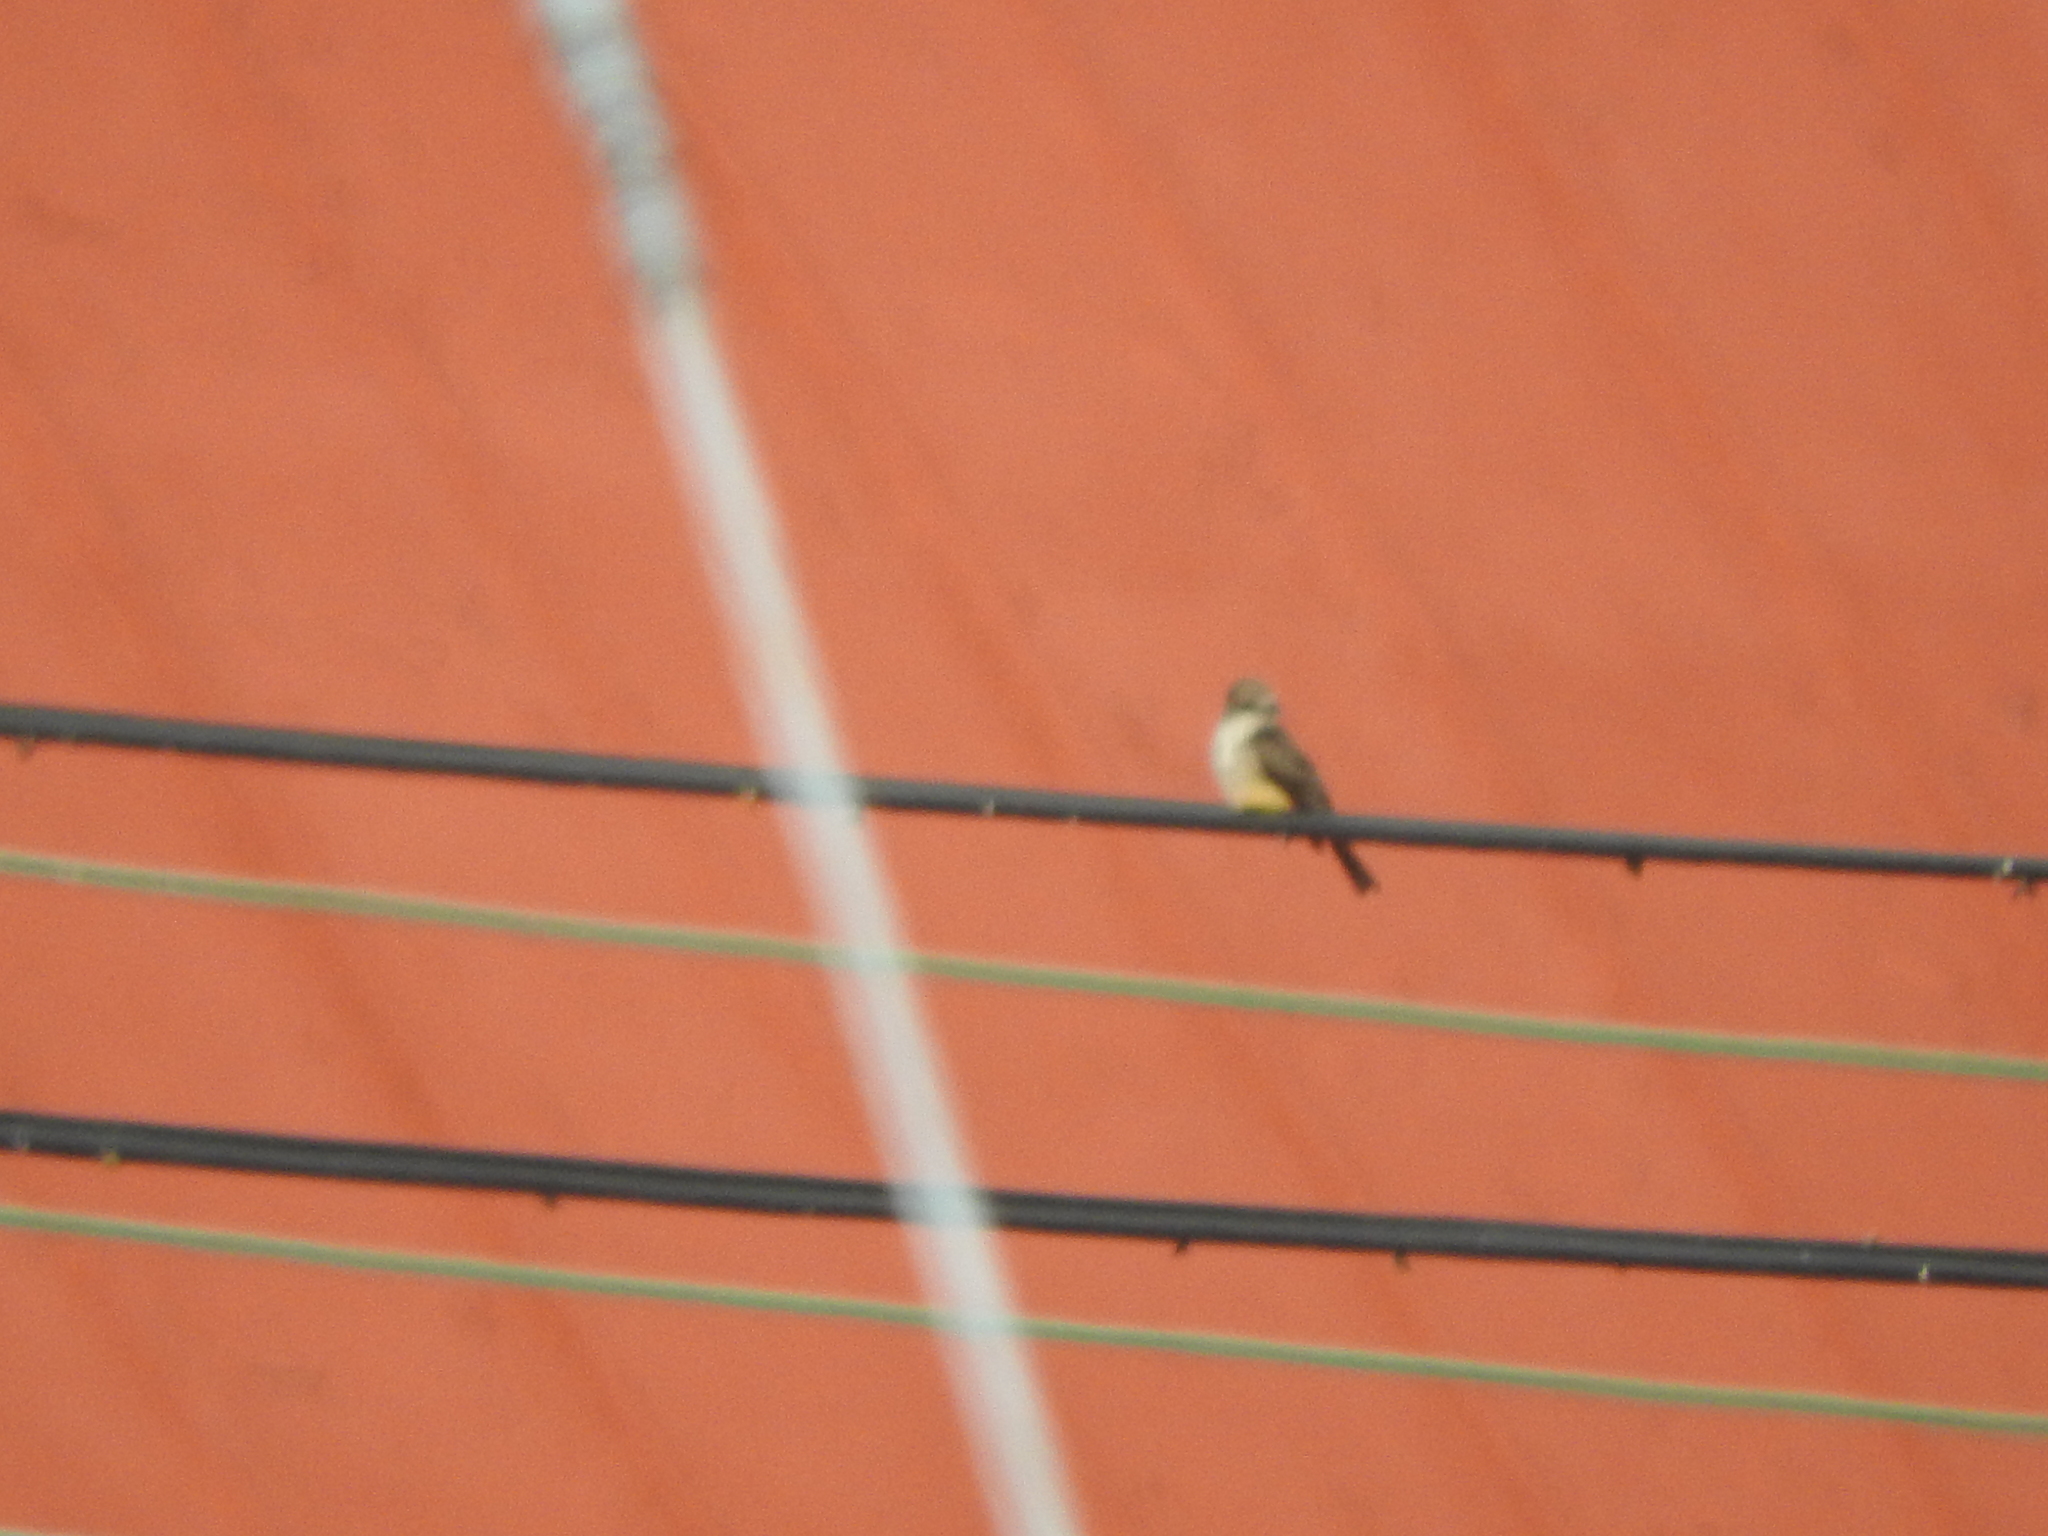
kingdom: Animalia
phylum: Chordata
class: Aves
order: Passeriformes
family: Tyrannidae
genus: Pyrocephalus
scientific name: Pyrocephalus rubinus
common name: Vermilion flycatcher
